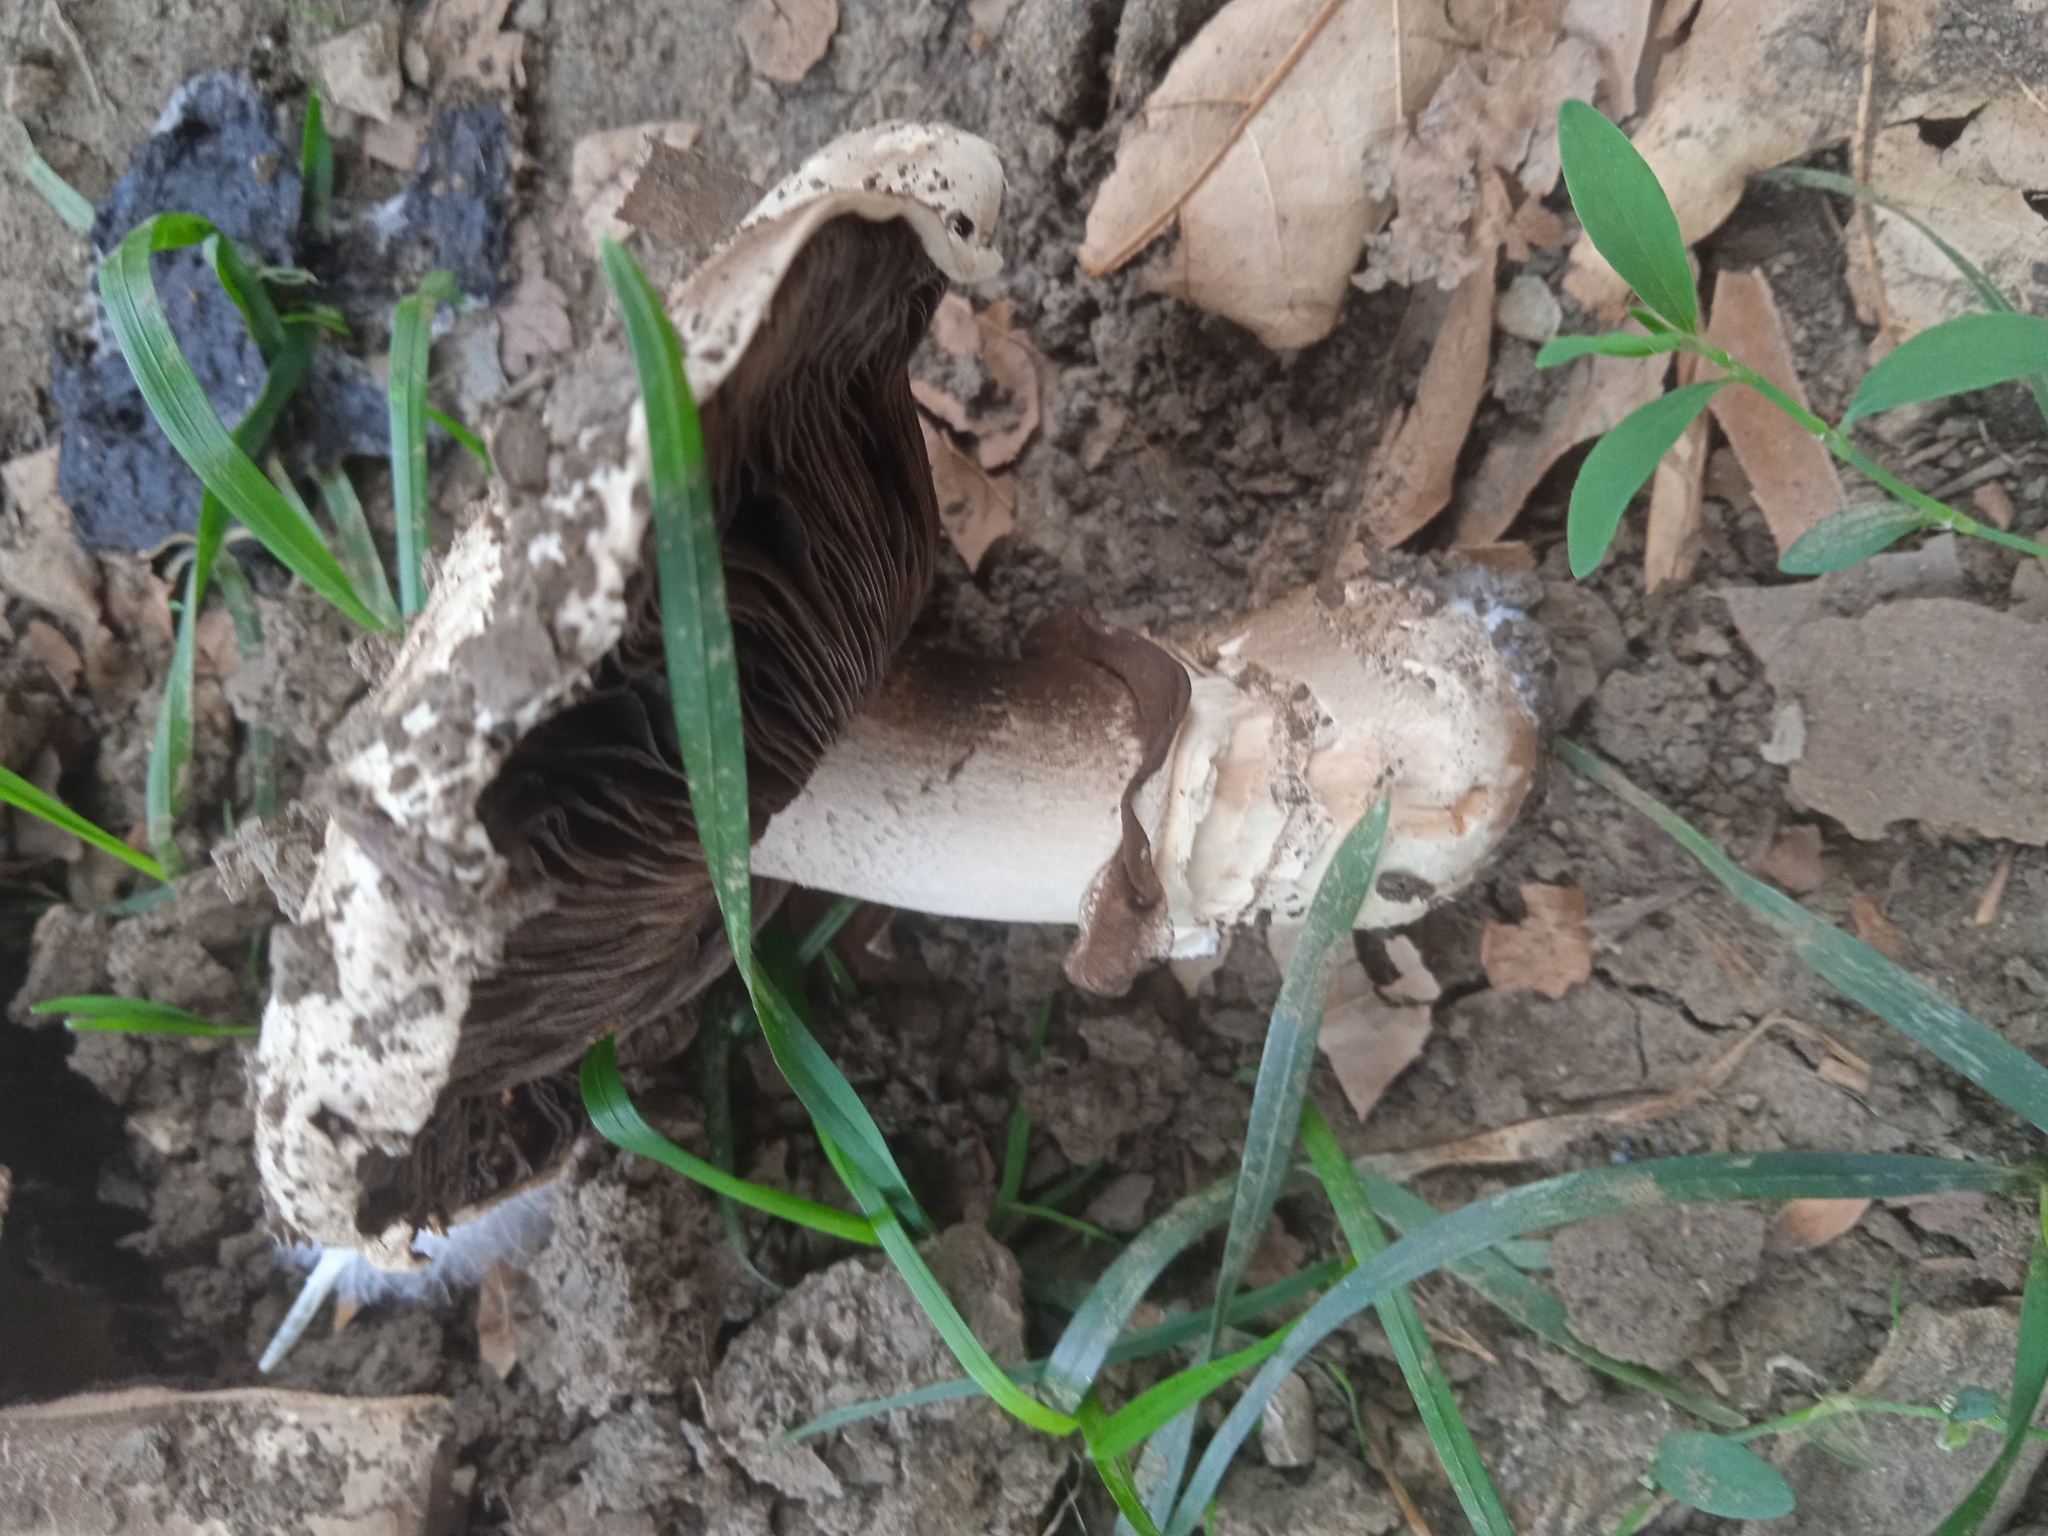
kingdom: Fungi
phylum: Basidiomycota
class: Agaricomycetes
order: Agaricales
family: Agaricaceae
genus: Agaricus
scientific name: Agaricus bitorquis
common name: Pavement mushroom
